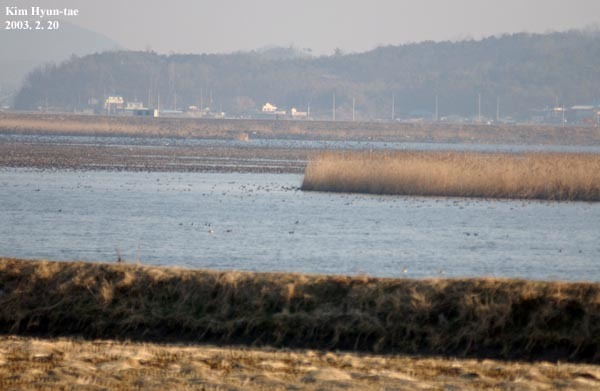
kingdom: Animalia
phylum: Chordata
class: Aves
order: Anseriformes
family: Anatidae
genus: Sibirionetta
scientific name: Sibirionetta formosa
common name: Baikal teal
